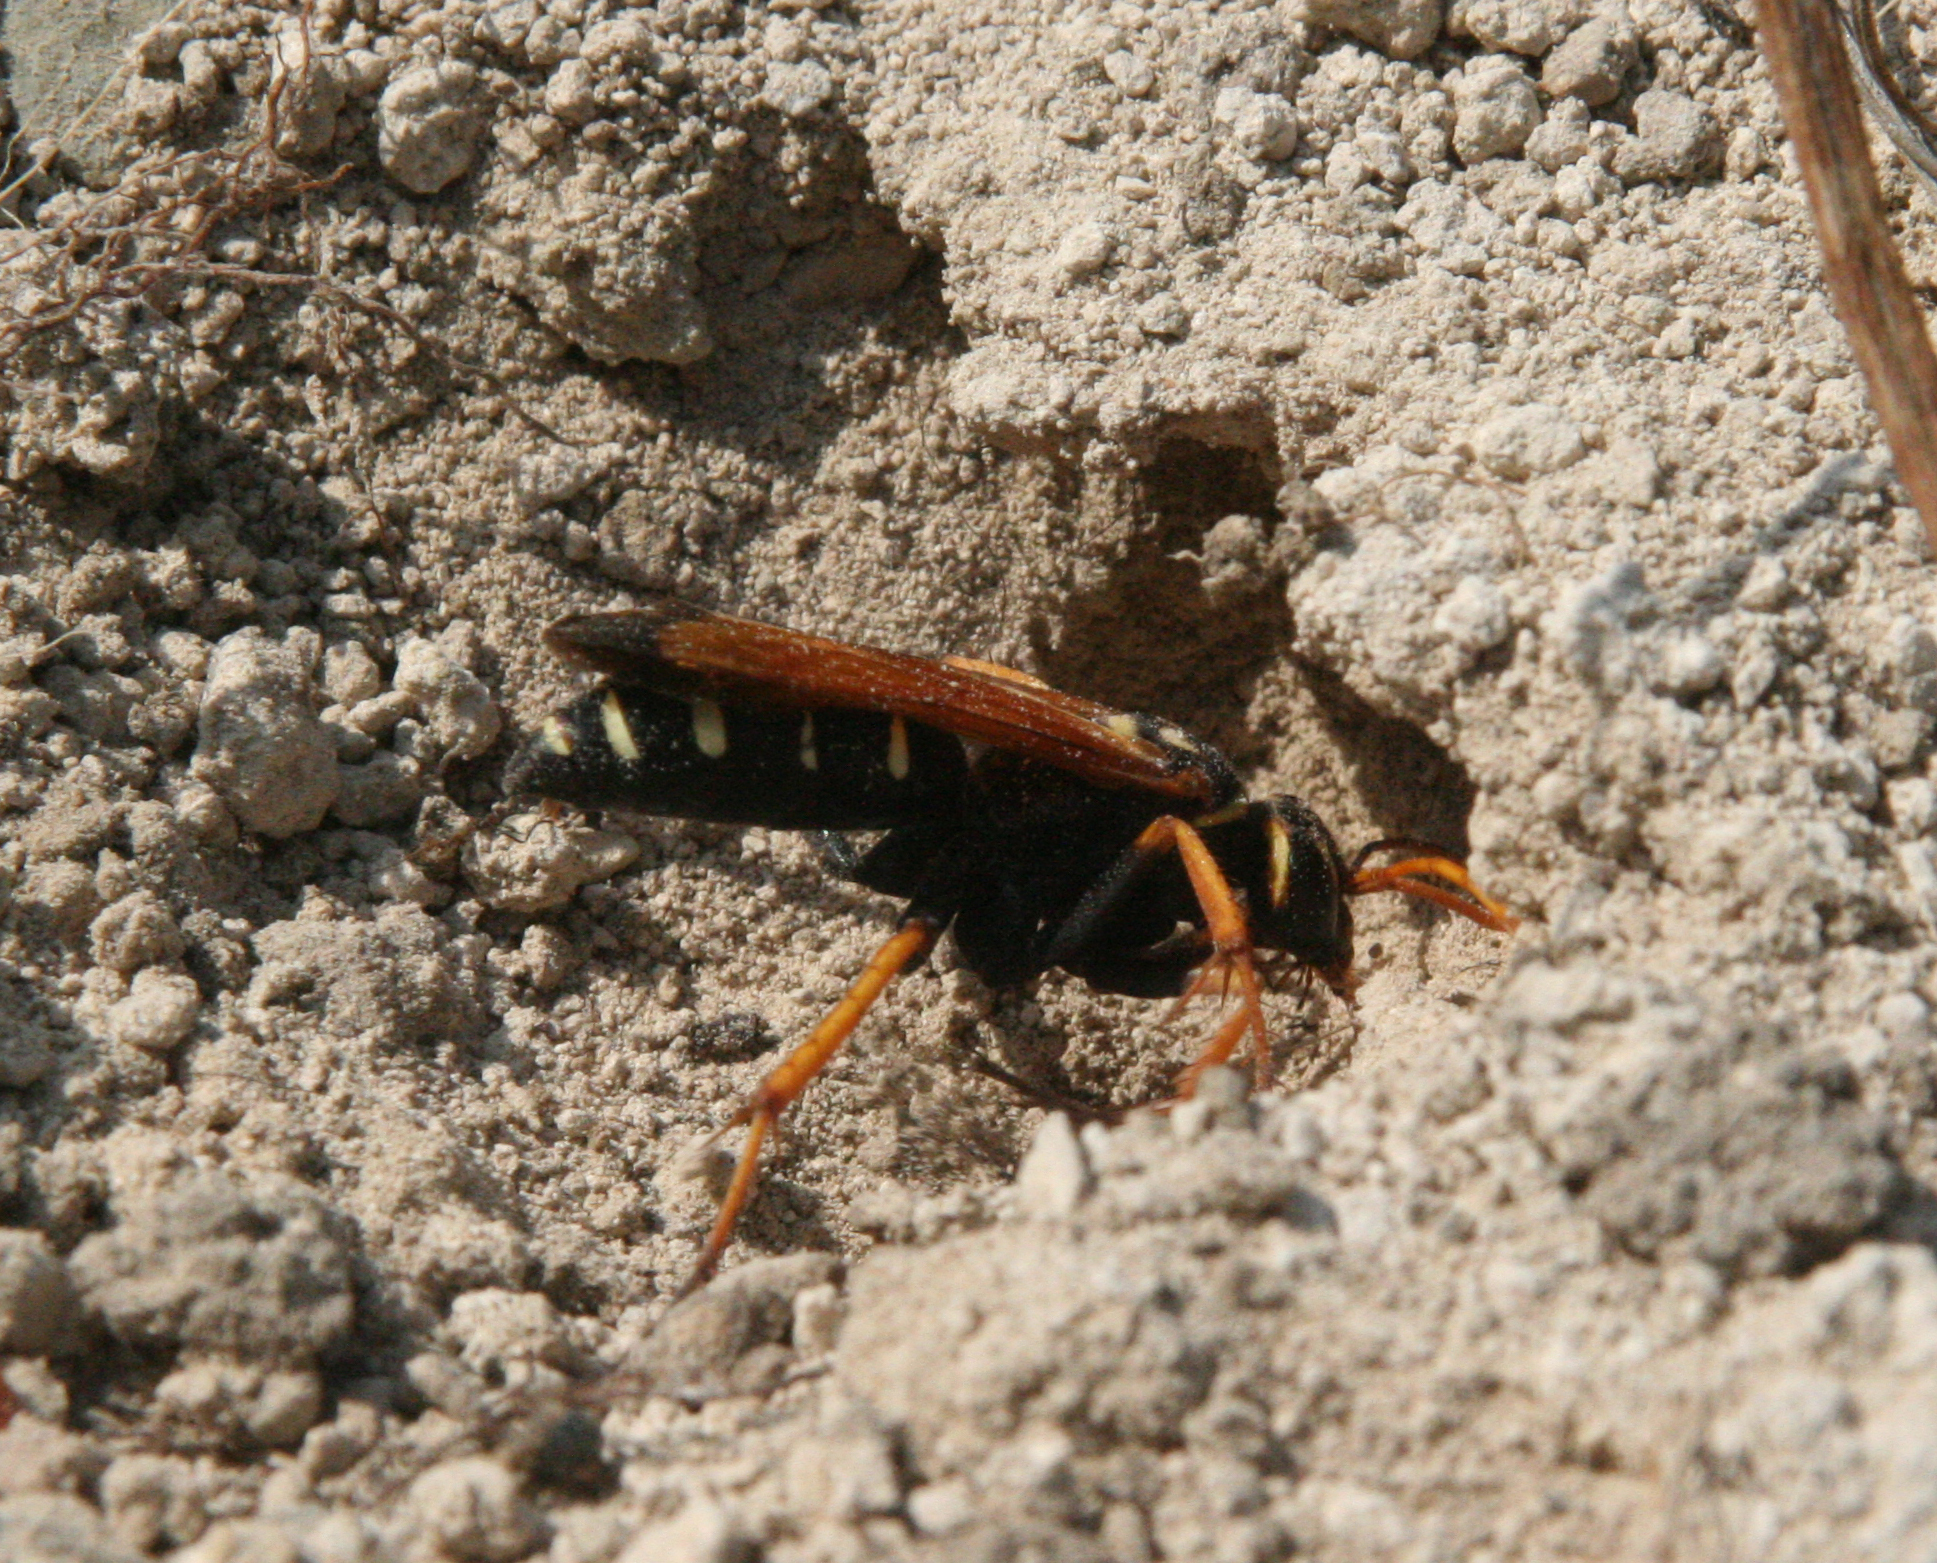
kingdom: Animalia
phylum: Arthropoda
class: Insecta
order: Hymenoptera
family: Pompilidae
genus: Parabatozonus
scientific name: Parabatozonus lacerticida
